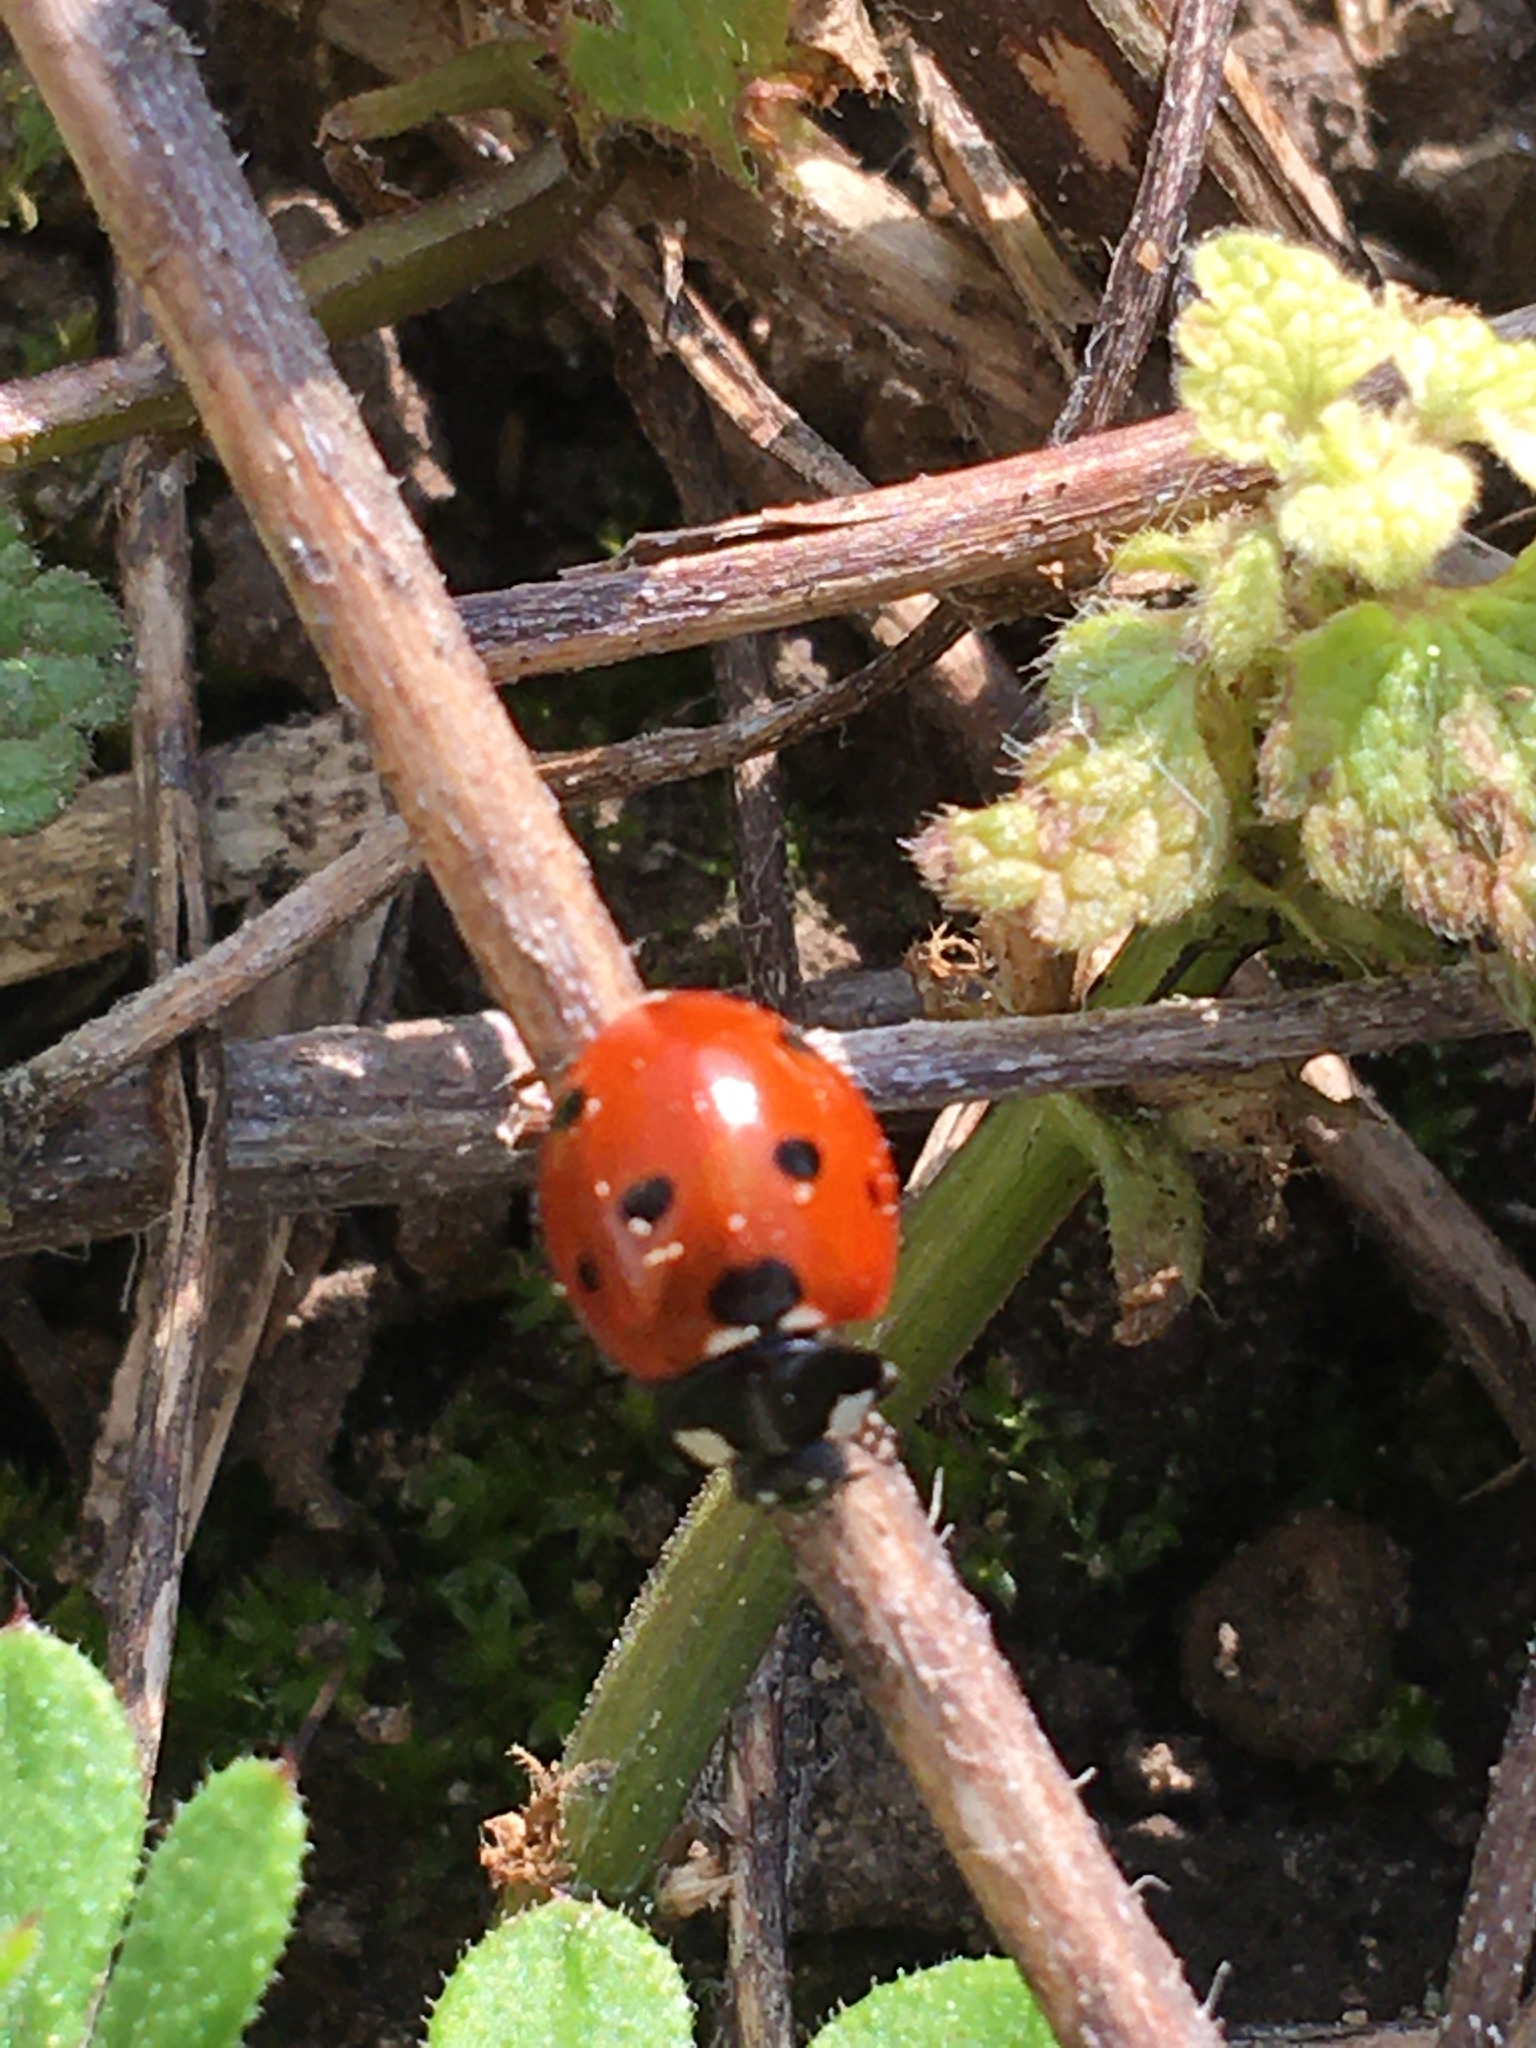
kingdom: Animalia
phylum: Arthropoda
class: Insecta
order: Coleoptera
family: Coccinellidae
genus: Coccinella
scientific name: Coccinella septempunctata
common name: Sevenspotted lady beetle
